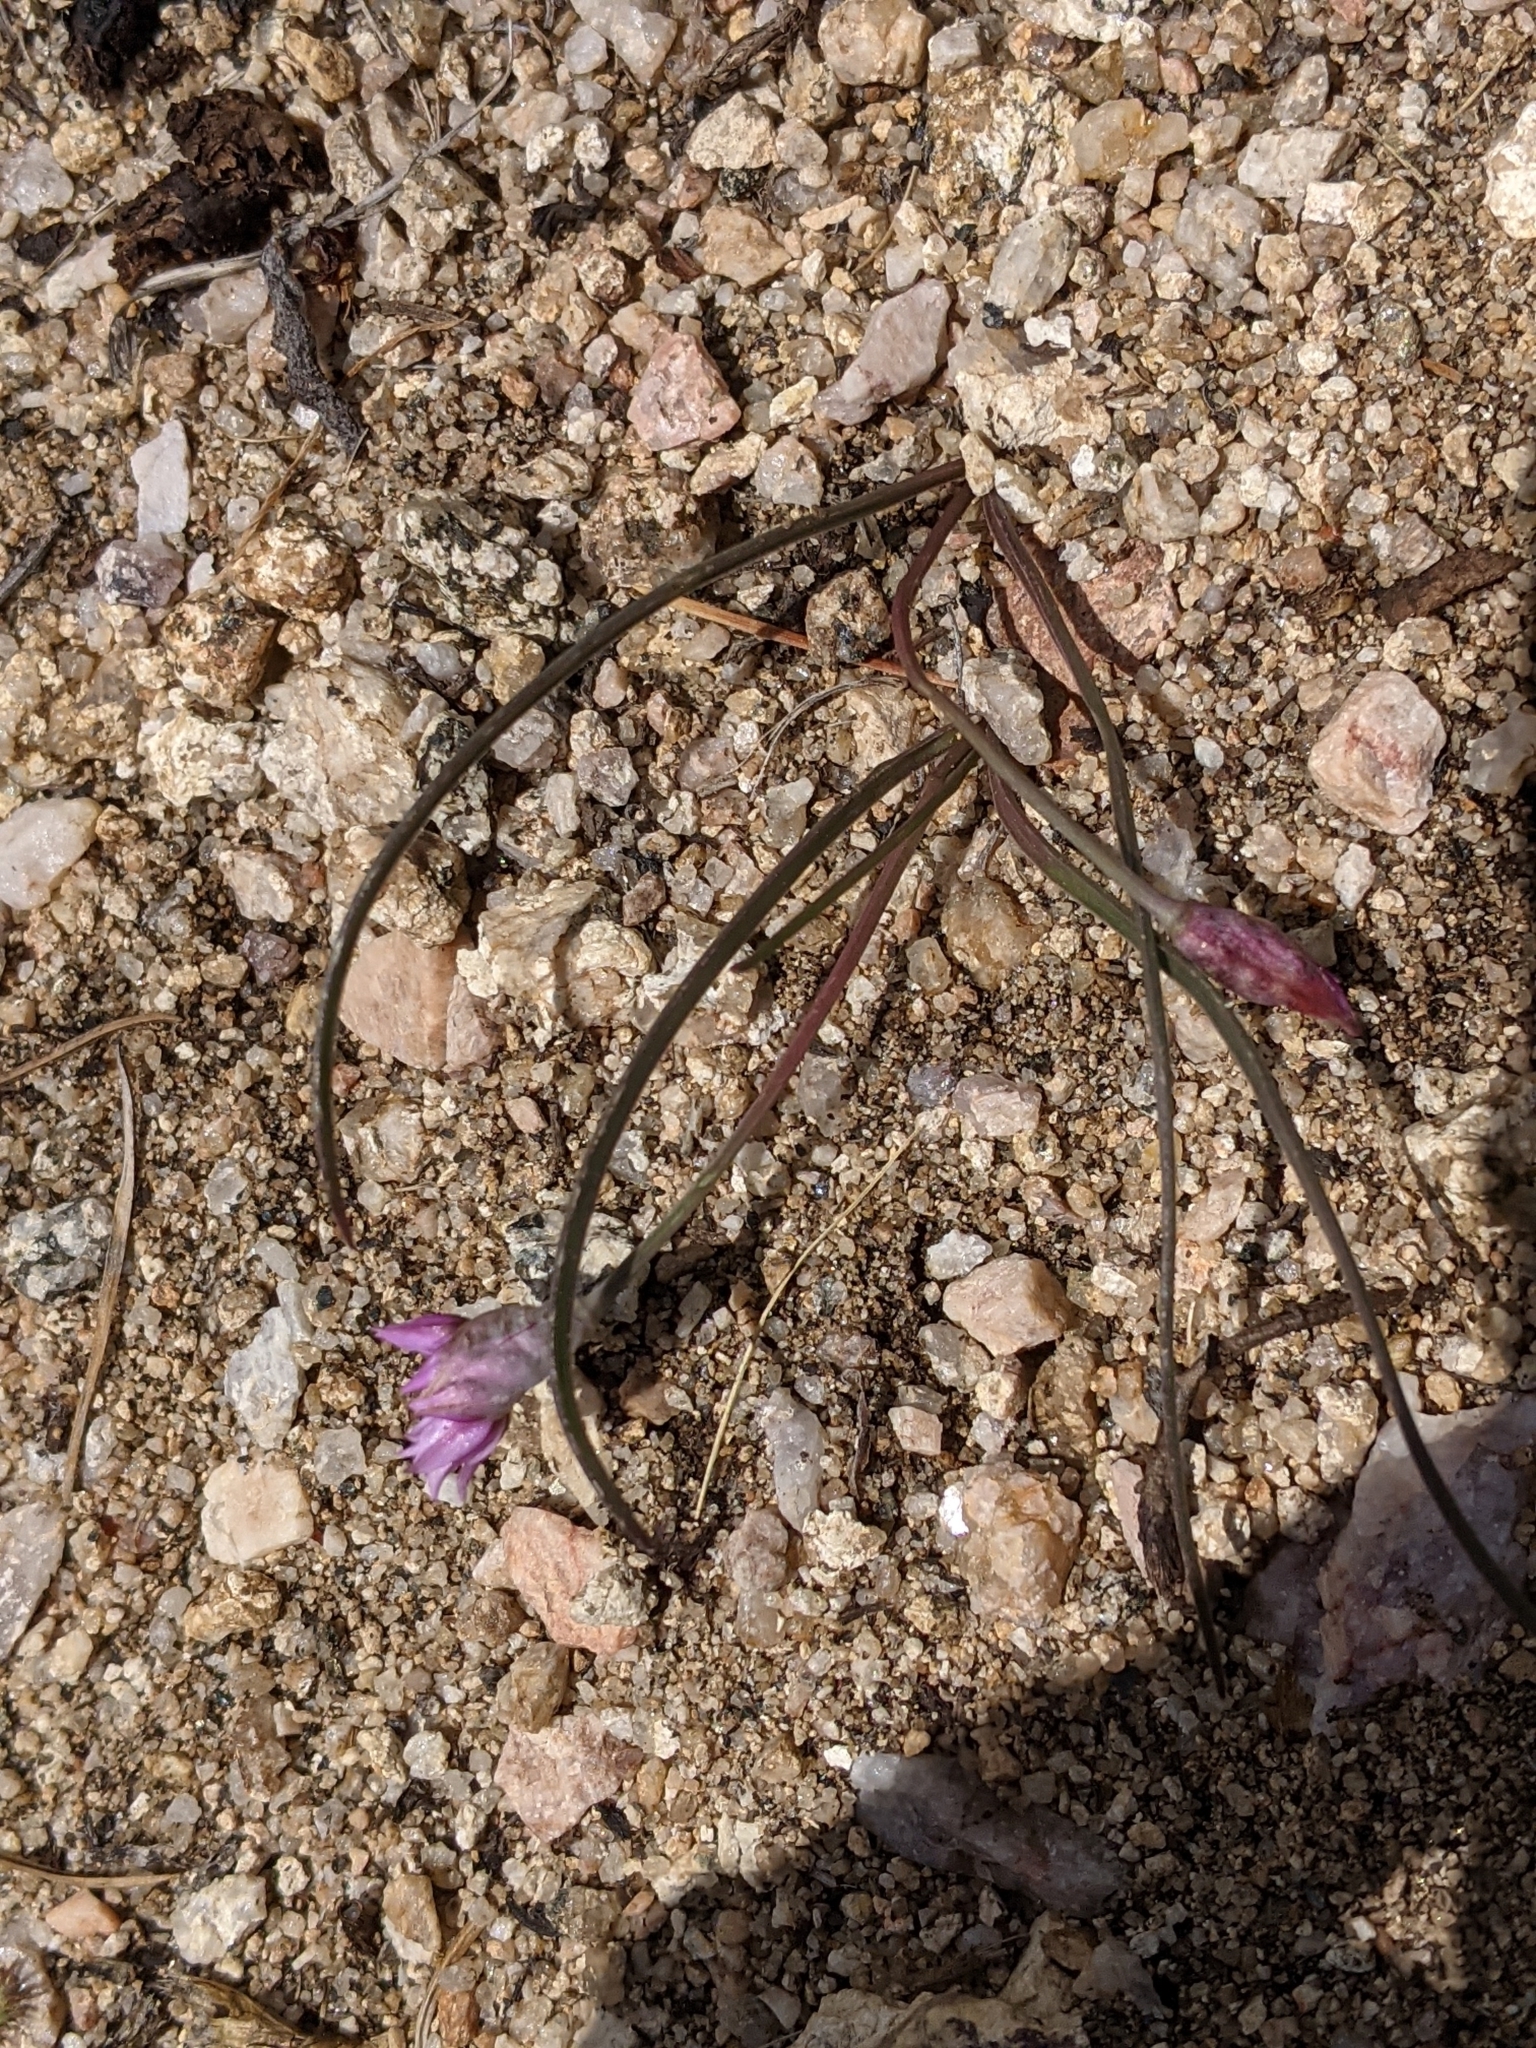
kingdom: Plantae
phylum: Tracheophyta
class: Liliopsida
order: Asparagales
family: Amaryllidaceae
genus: Allium
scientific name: Allium geyeri
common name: Geyer's onion
